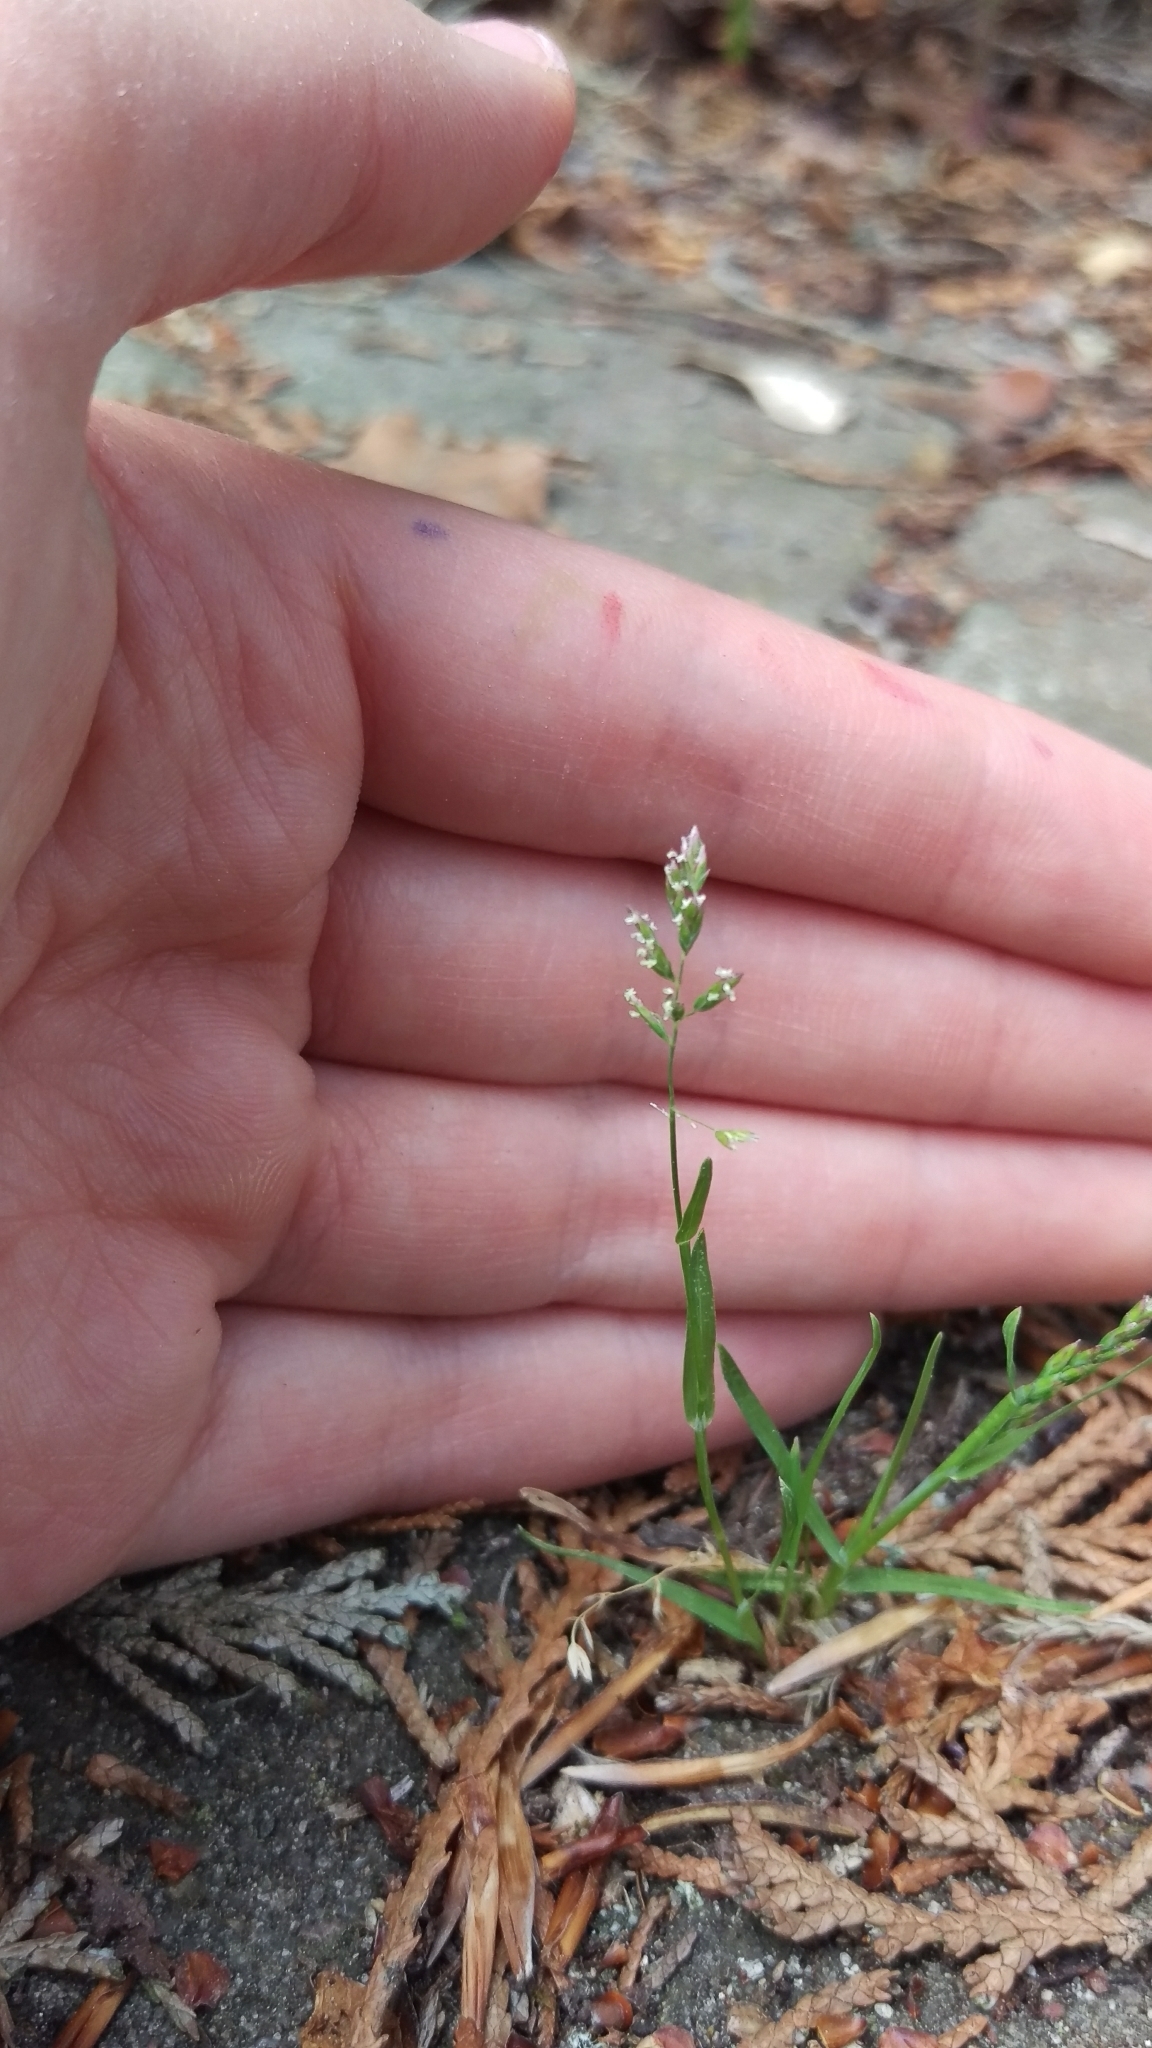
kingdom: Plantae
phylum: Tracheophyta
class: Liliopsida
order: Poales
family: Poaceae
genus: Poa
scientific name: Poa annua
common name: Annual bluegrass
